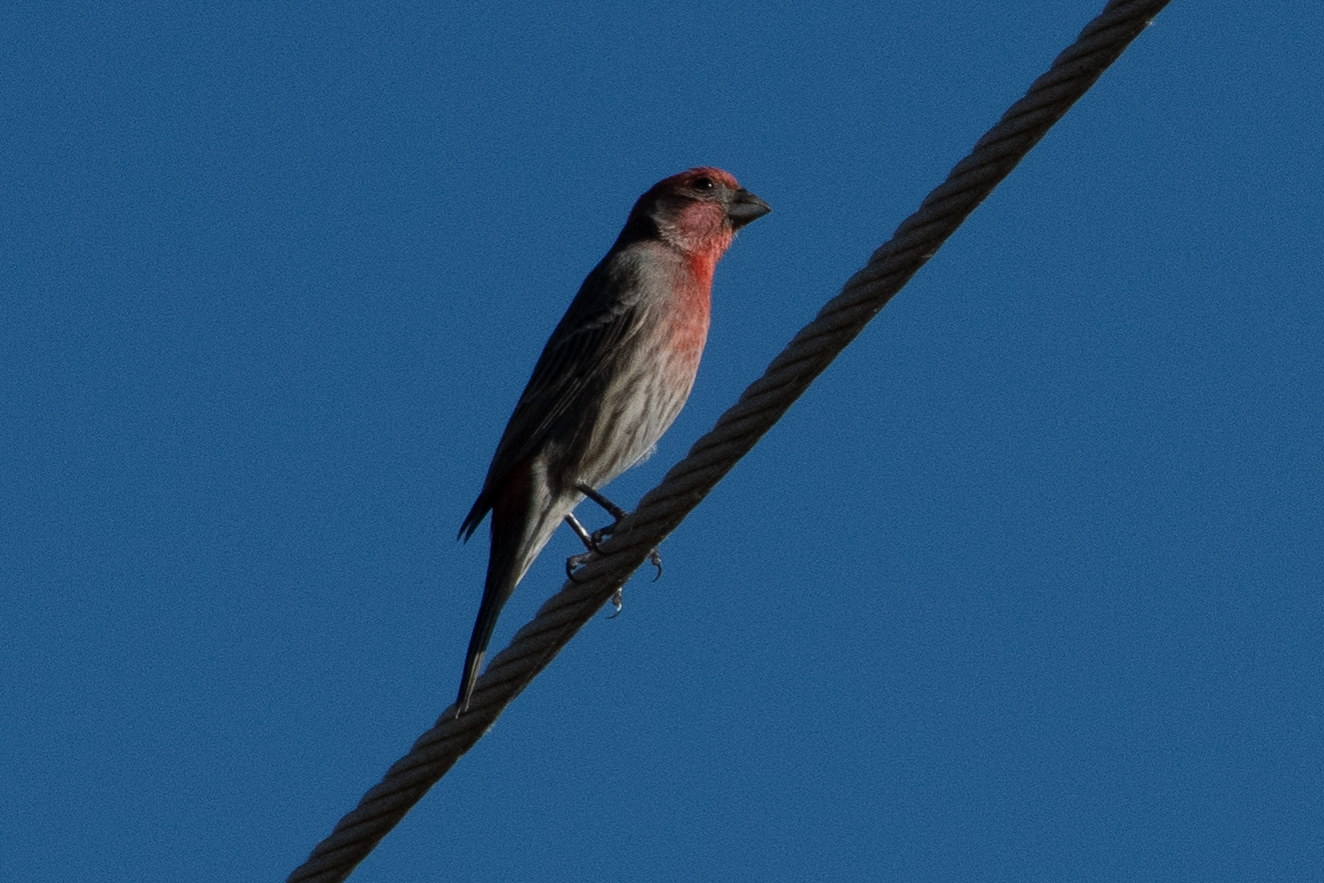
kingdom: Animalia
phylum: Chordata
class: Aves
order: Passeriformes
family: Fringillidae
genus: Haemorhous
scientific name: Haemorhous mexicanus
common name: House finch
